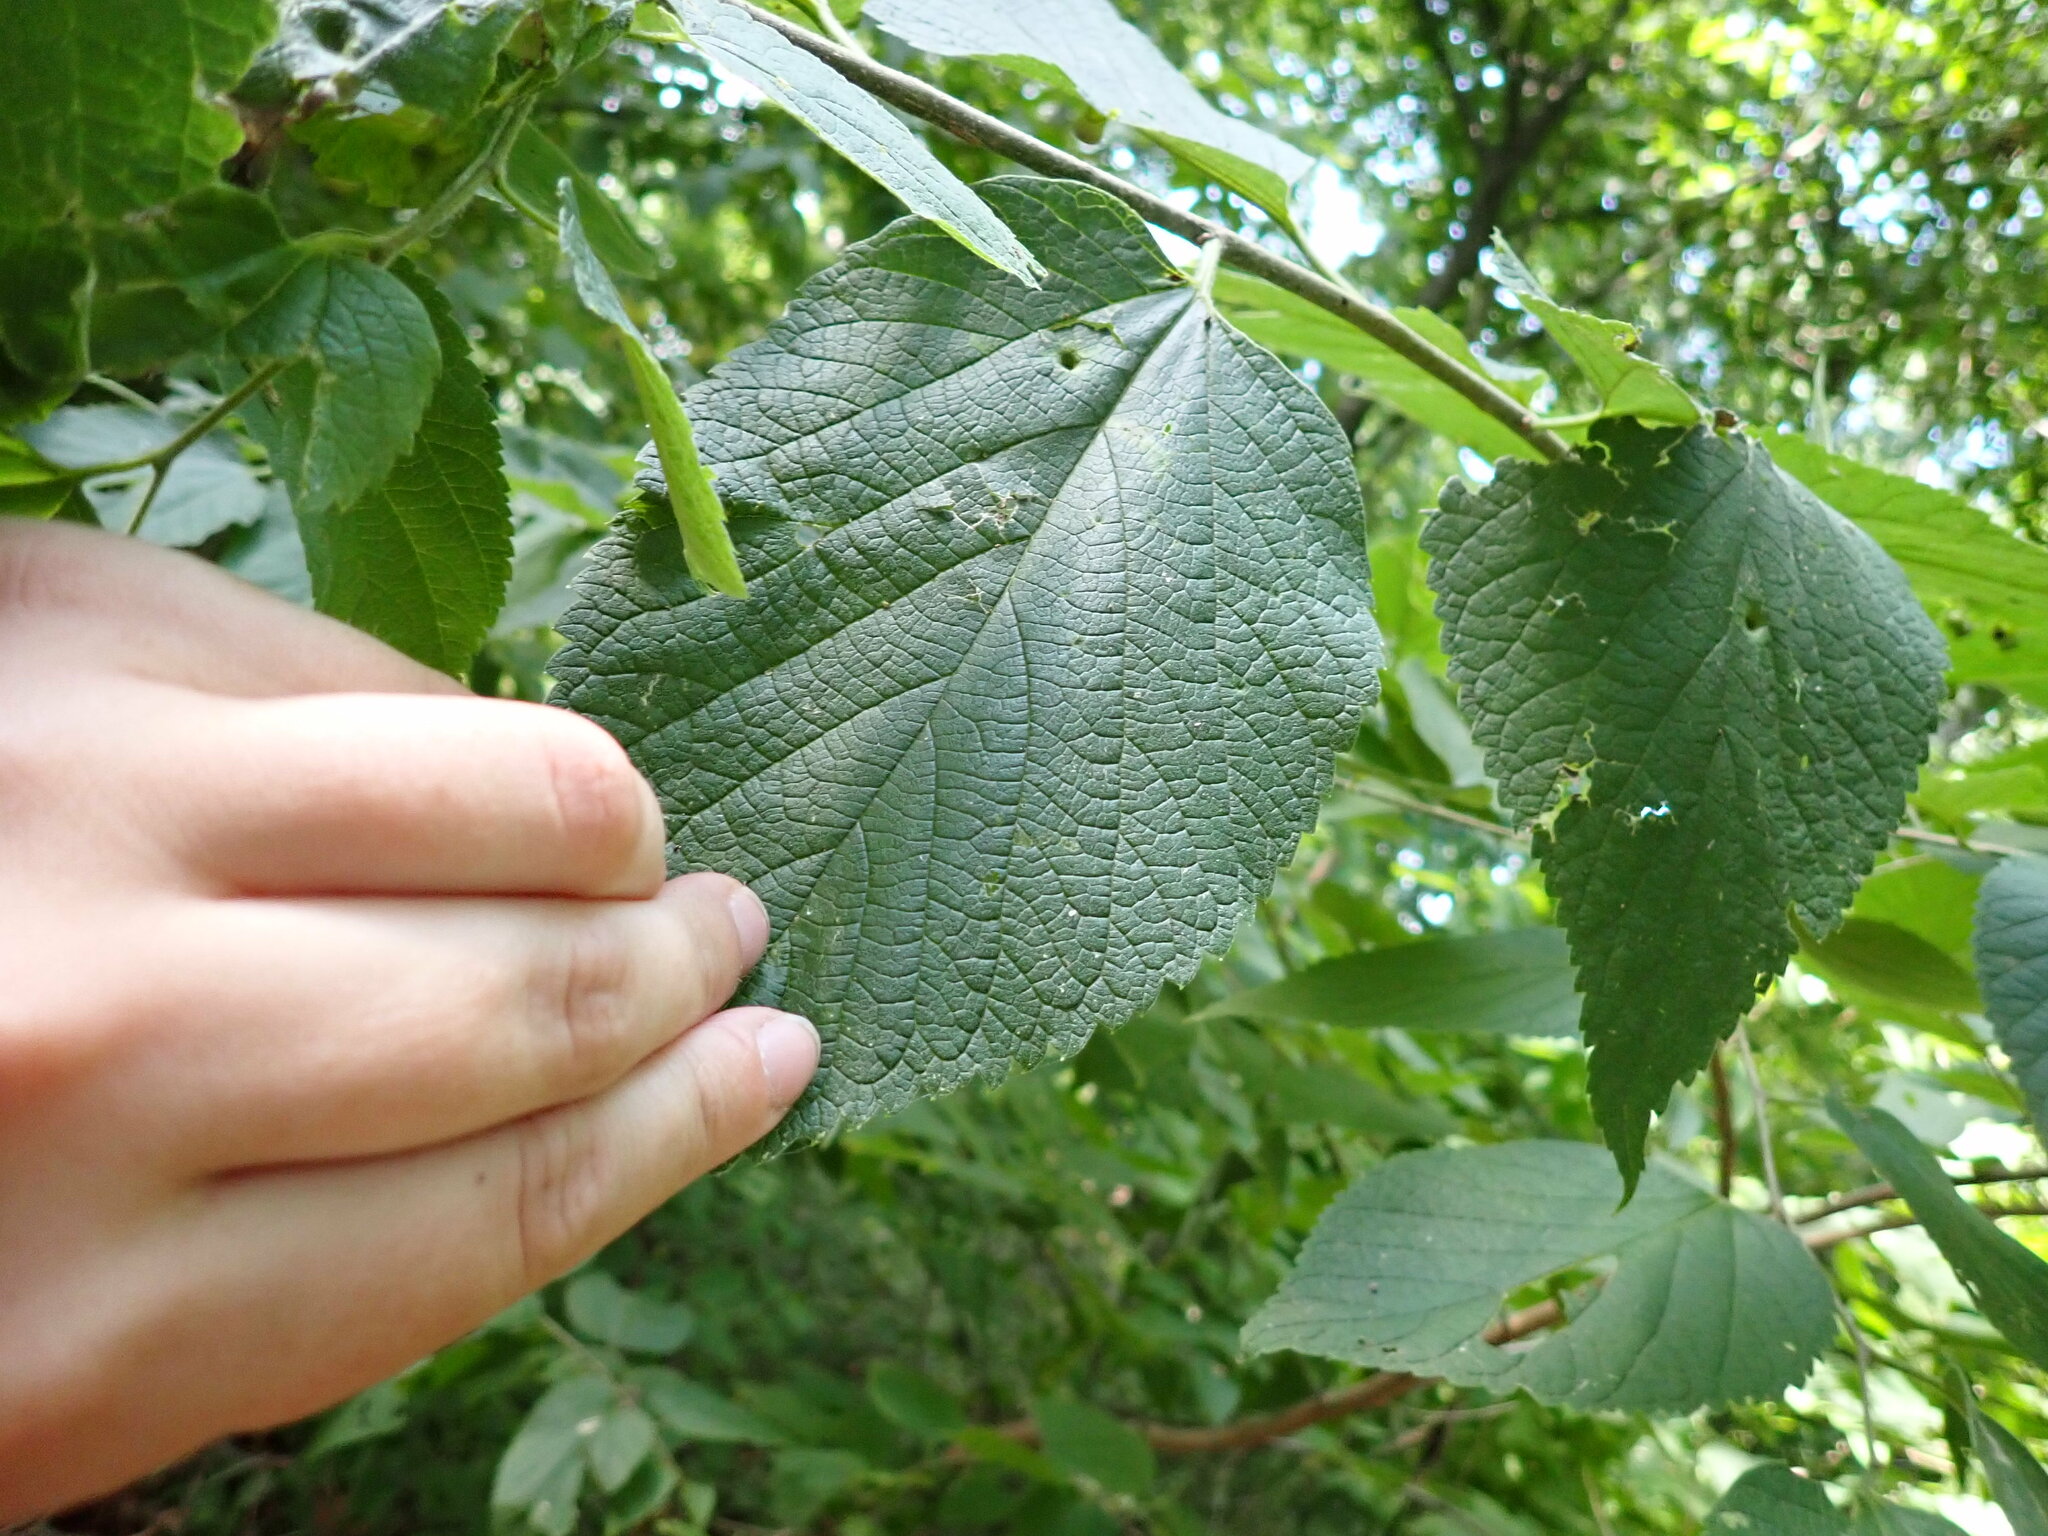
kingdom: Plantae
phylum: Tracheophyta
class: Magnoliopsida
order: Rosales
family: Cannabaceae
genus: Celtis
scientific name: Celtis occidentalis
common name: Common hackberry
